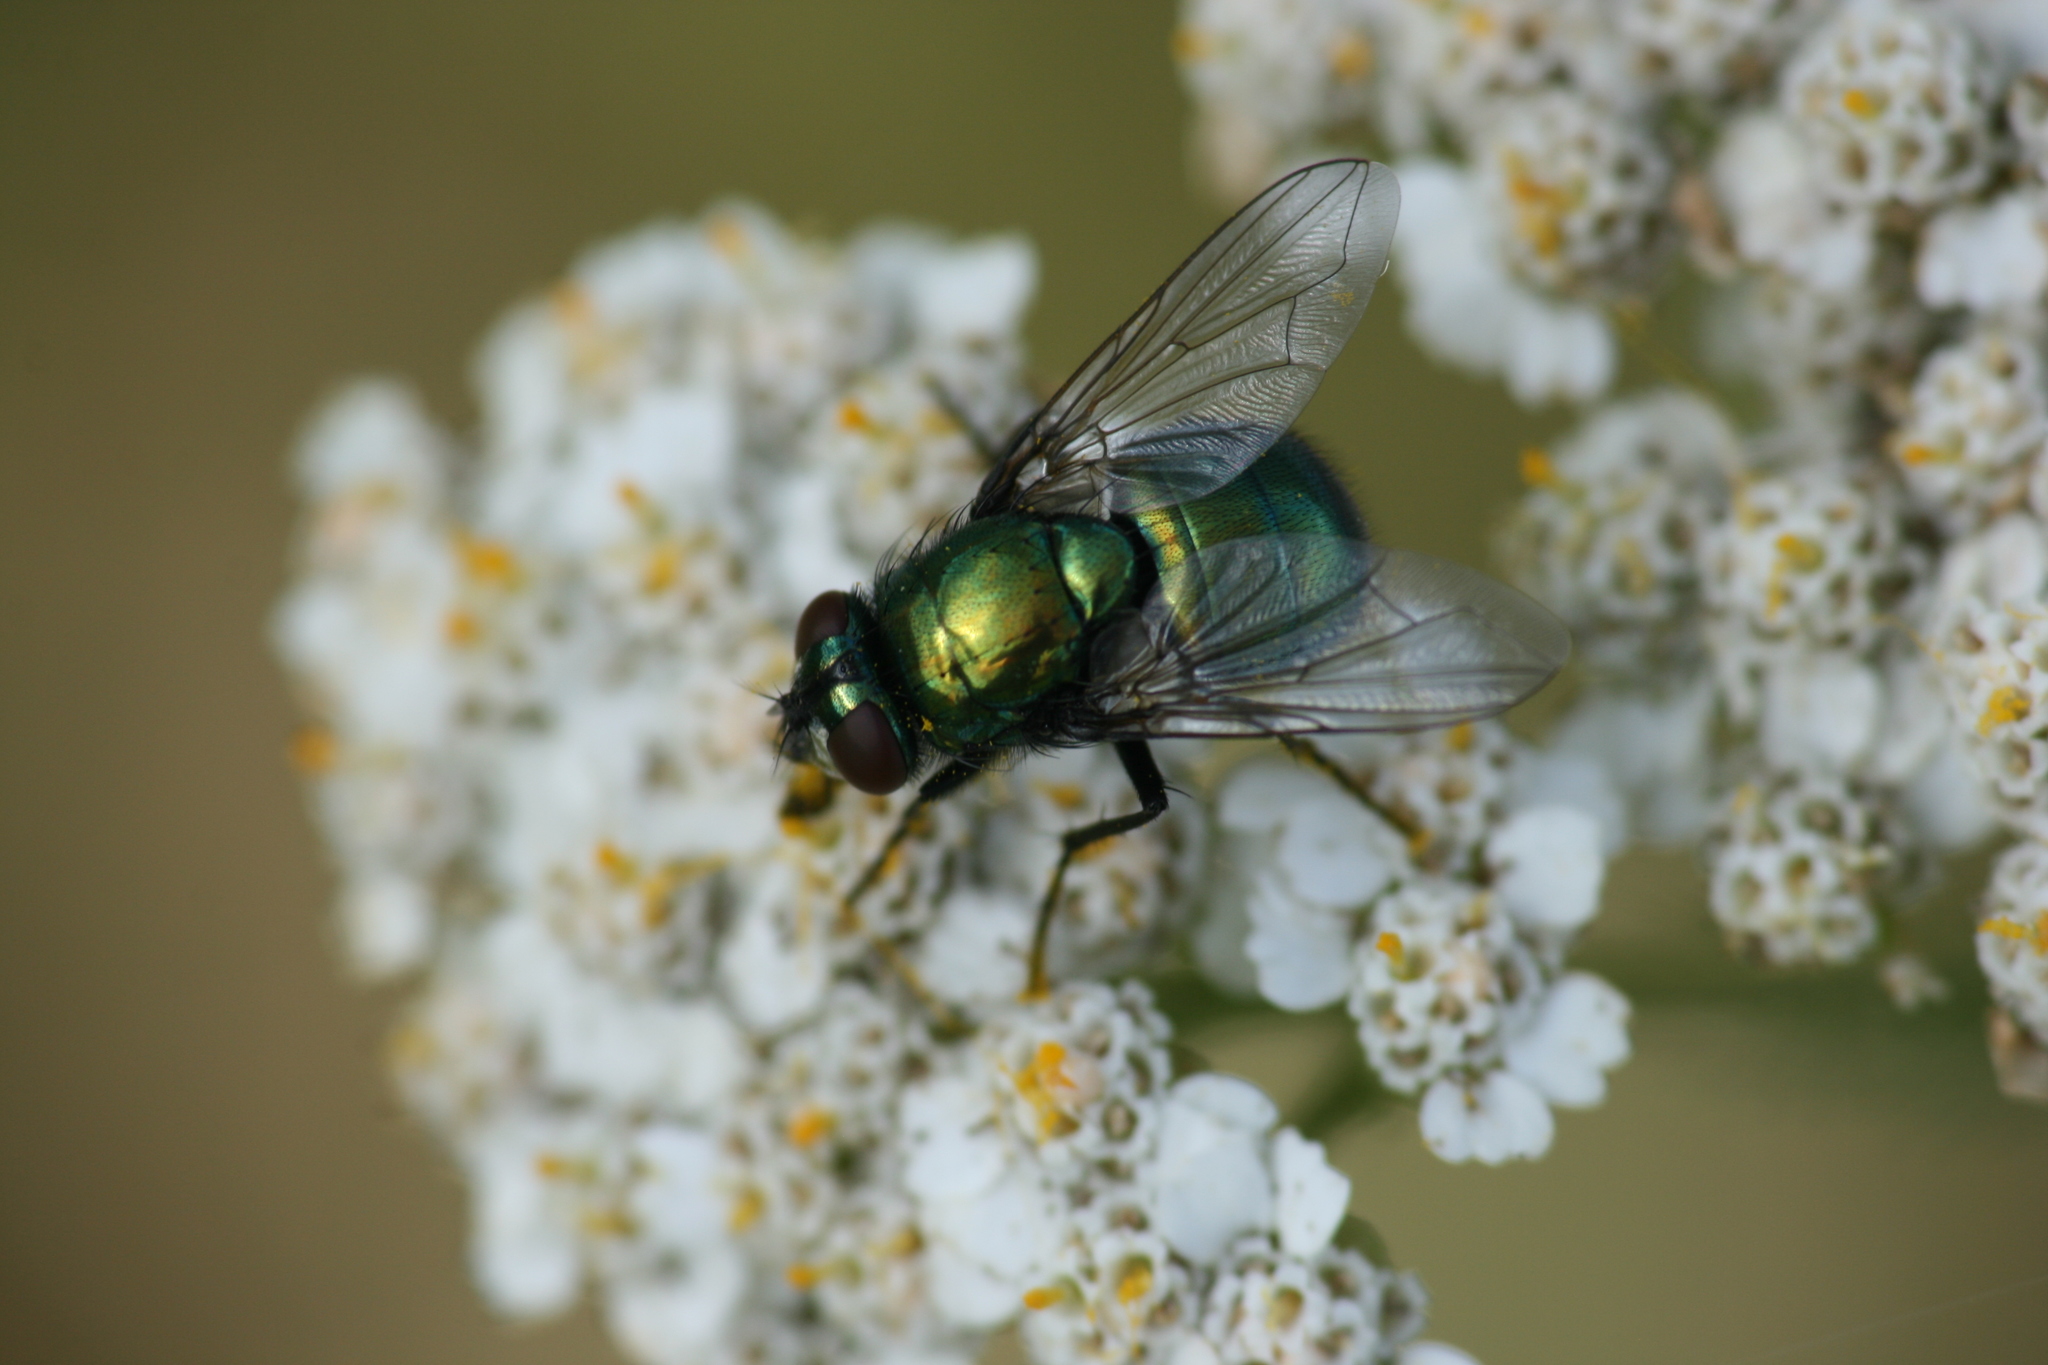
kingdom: Animalia
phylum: Arthropoda
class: Insecta
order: Diptera
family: Muscidae
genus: Neomyia
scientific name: Neomyia viridescens
